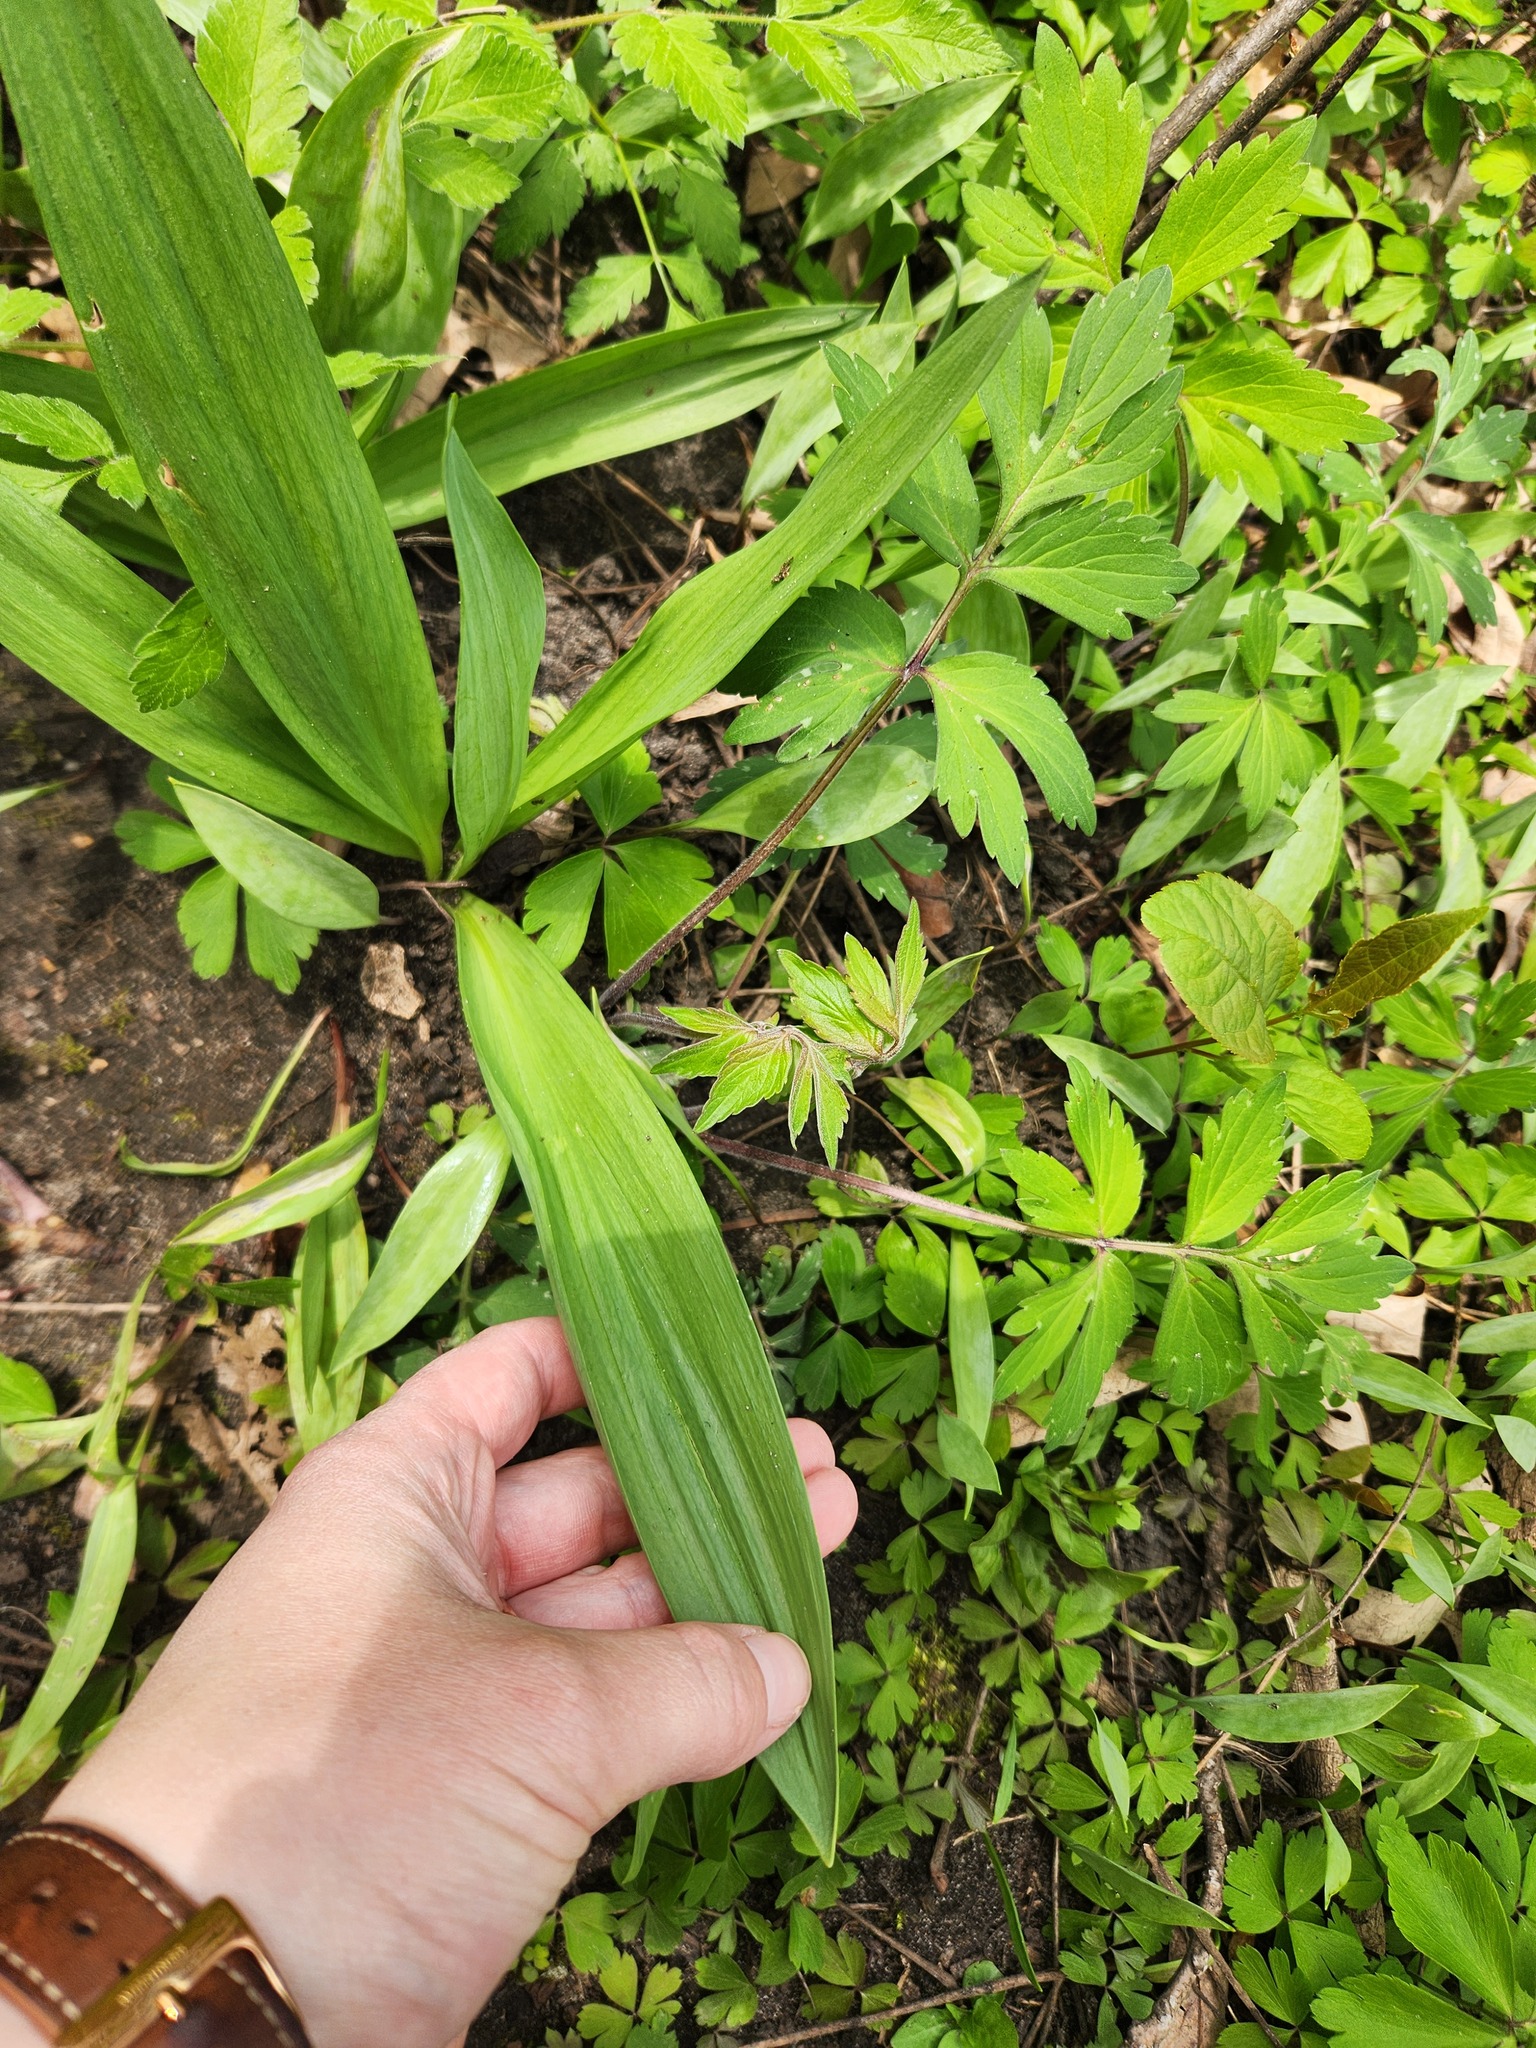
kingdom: Plantae
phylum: Tracheophyta
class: Liliopsida
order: Asparagales
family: Amaryllidaceae
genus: Allium
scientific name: Allium tricoccum
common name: Ramp
